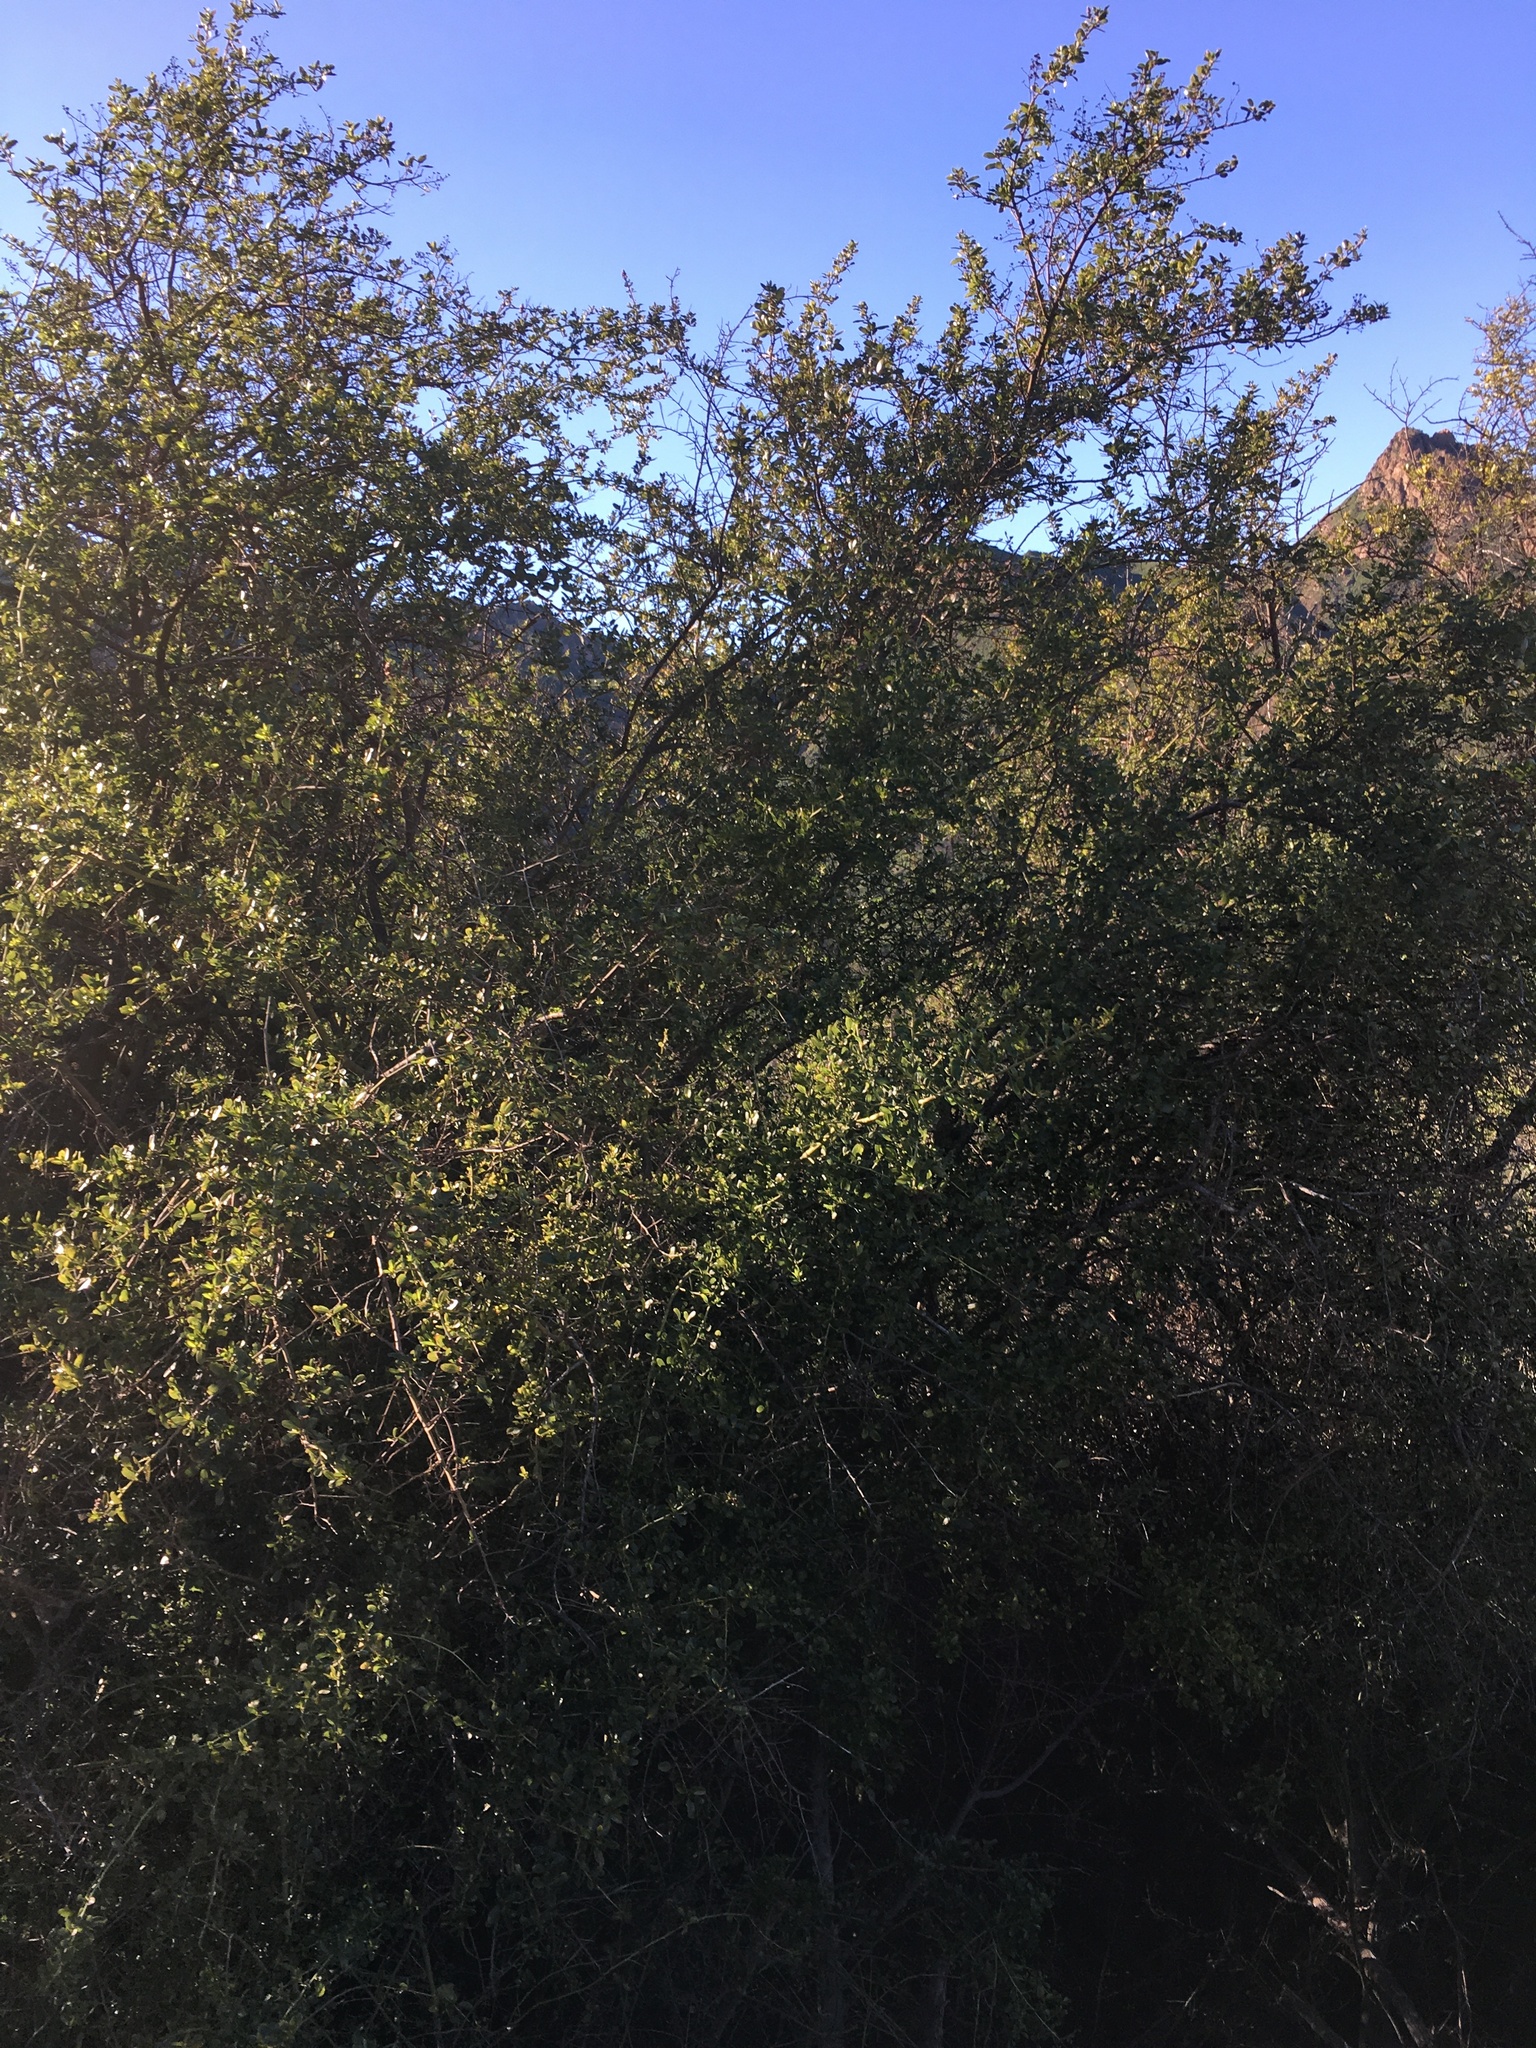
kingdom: Plantae
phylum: Tracheophyta
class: Magnoliopsida
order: Rosales
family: Rhamnaceae
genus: Ceanothus
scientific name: Ceanothus spinosus
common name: Greenbark whitethorn
